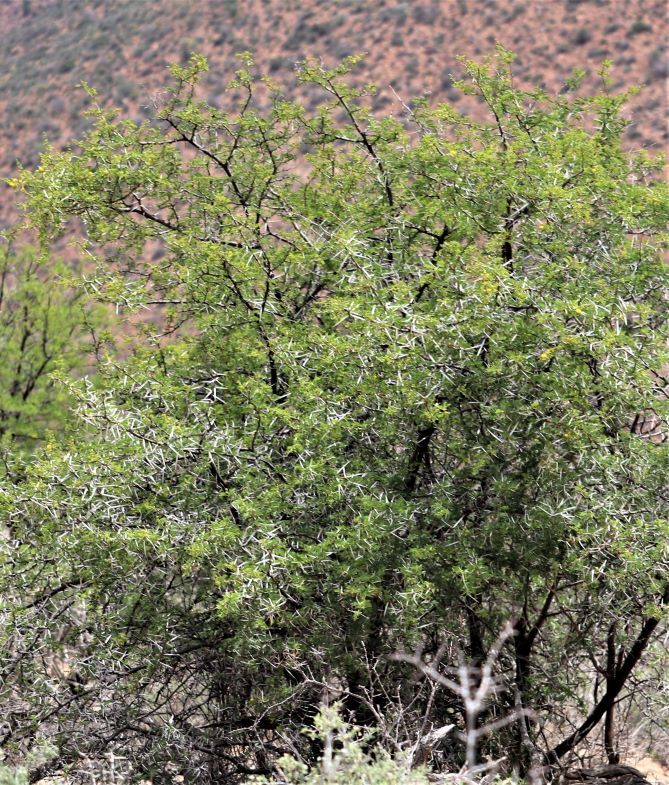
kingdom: Plantae
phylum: Tracheophyta
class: Magnoliopsida
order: Fabales
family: Fabaceae
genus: Vachellia
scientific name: Vachellia karroo
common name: Sweet thorn
